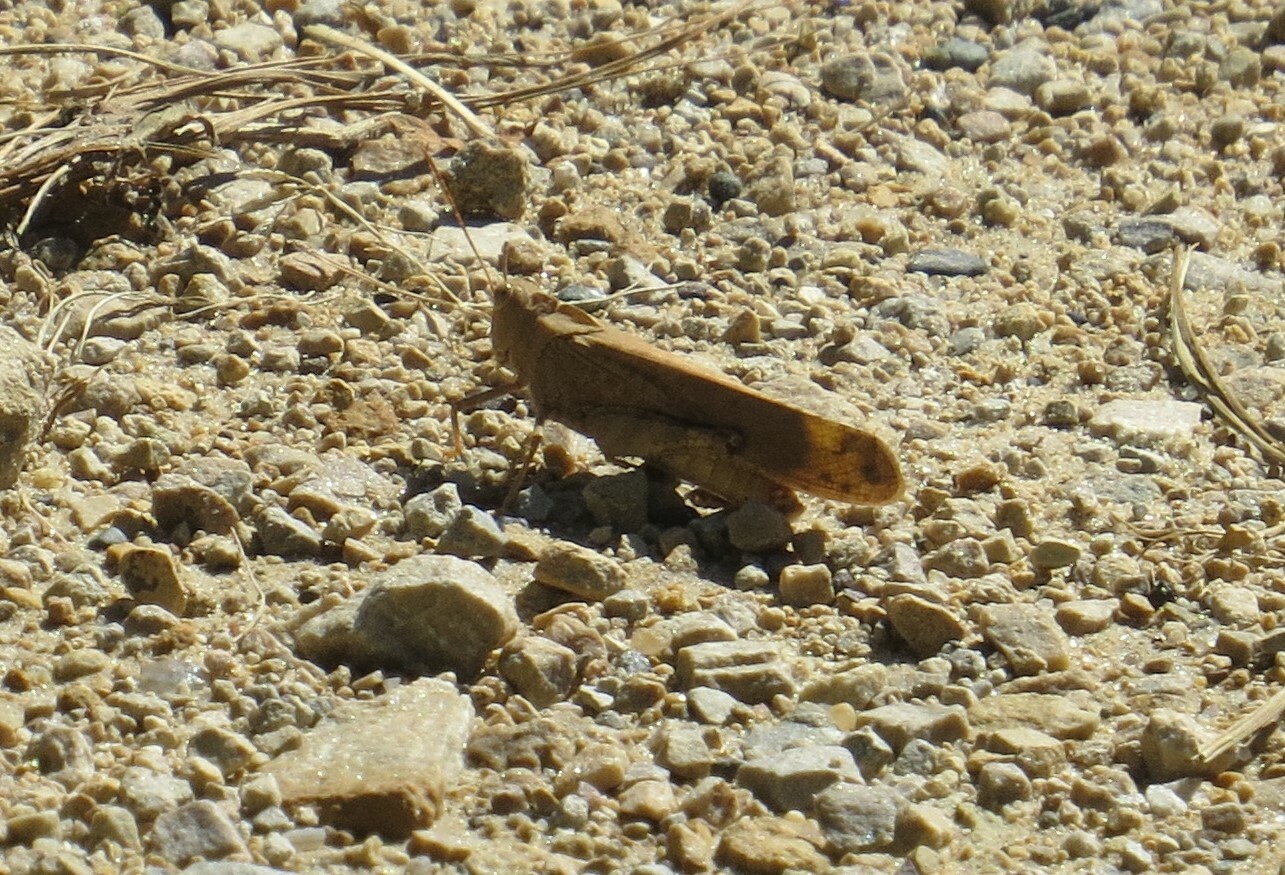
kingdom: Animalia
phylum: Arthropoda
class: Insecta
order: Orthoptera
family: Acrididae
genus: Dissosteira
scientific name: Dissosteira carolina
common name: Carolina grasshopper
